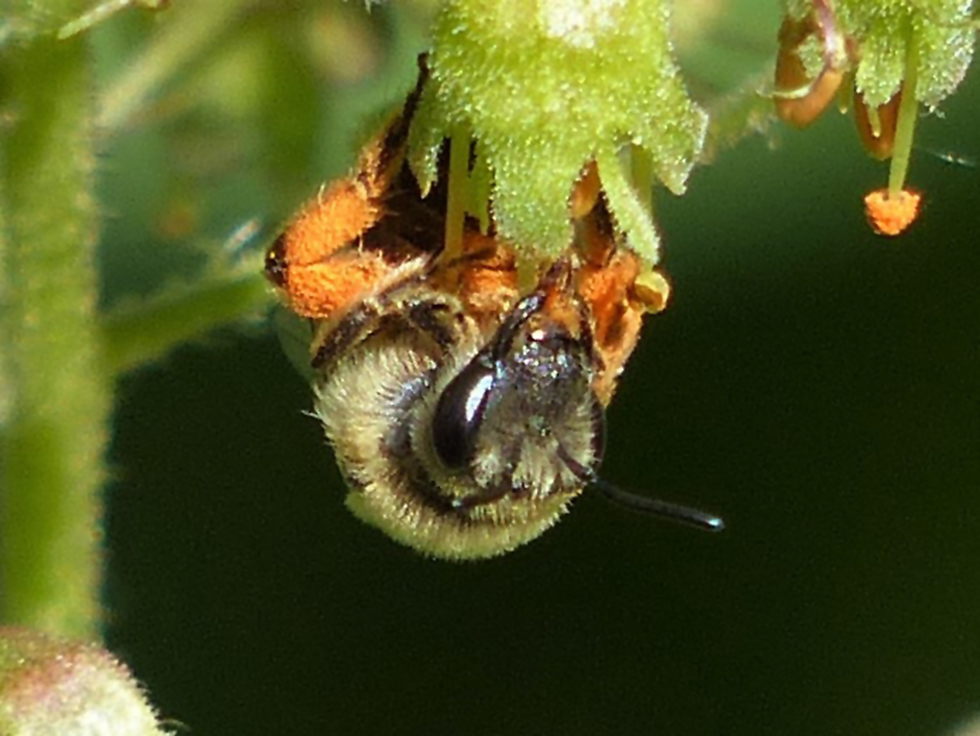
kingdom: Animalia
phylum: Arthropoda
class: Insecta
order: Hymenoptera
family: Colletidae
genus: Colletes
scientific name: Colletes aestivalis
